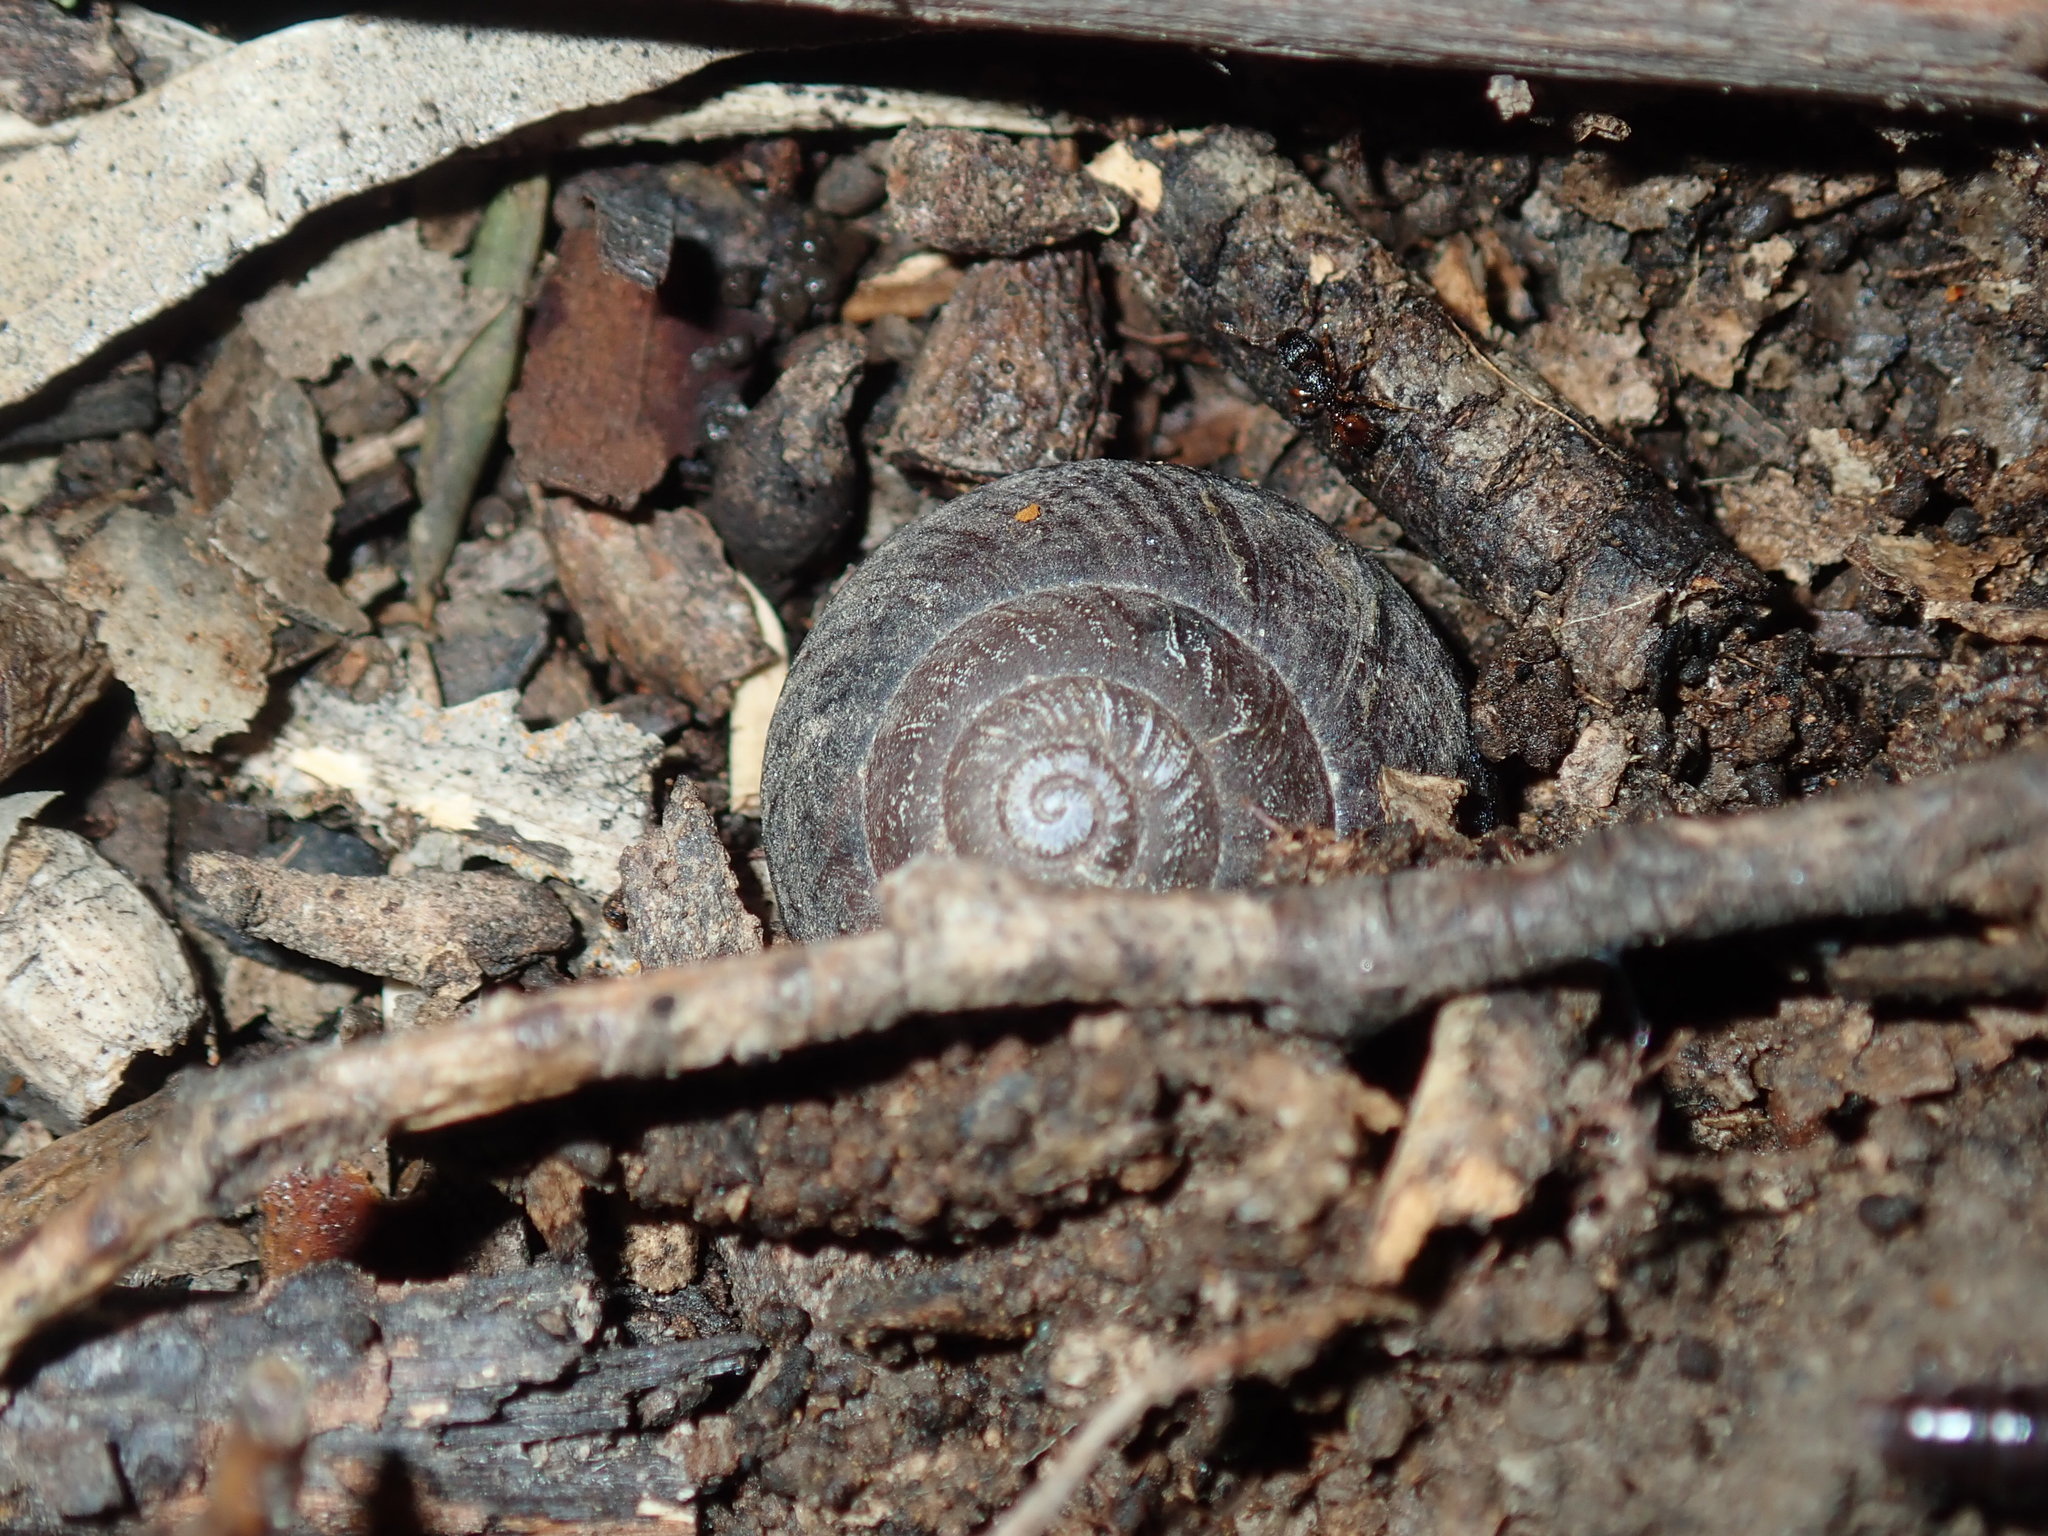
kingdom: Animalia
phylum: Mollusca
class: Gastropoda
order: Stylommatophora
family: Camaenidae
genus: Sauroconcha
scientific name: Sauroconcha sheai
